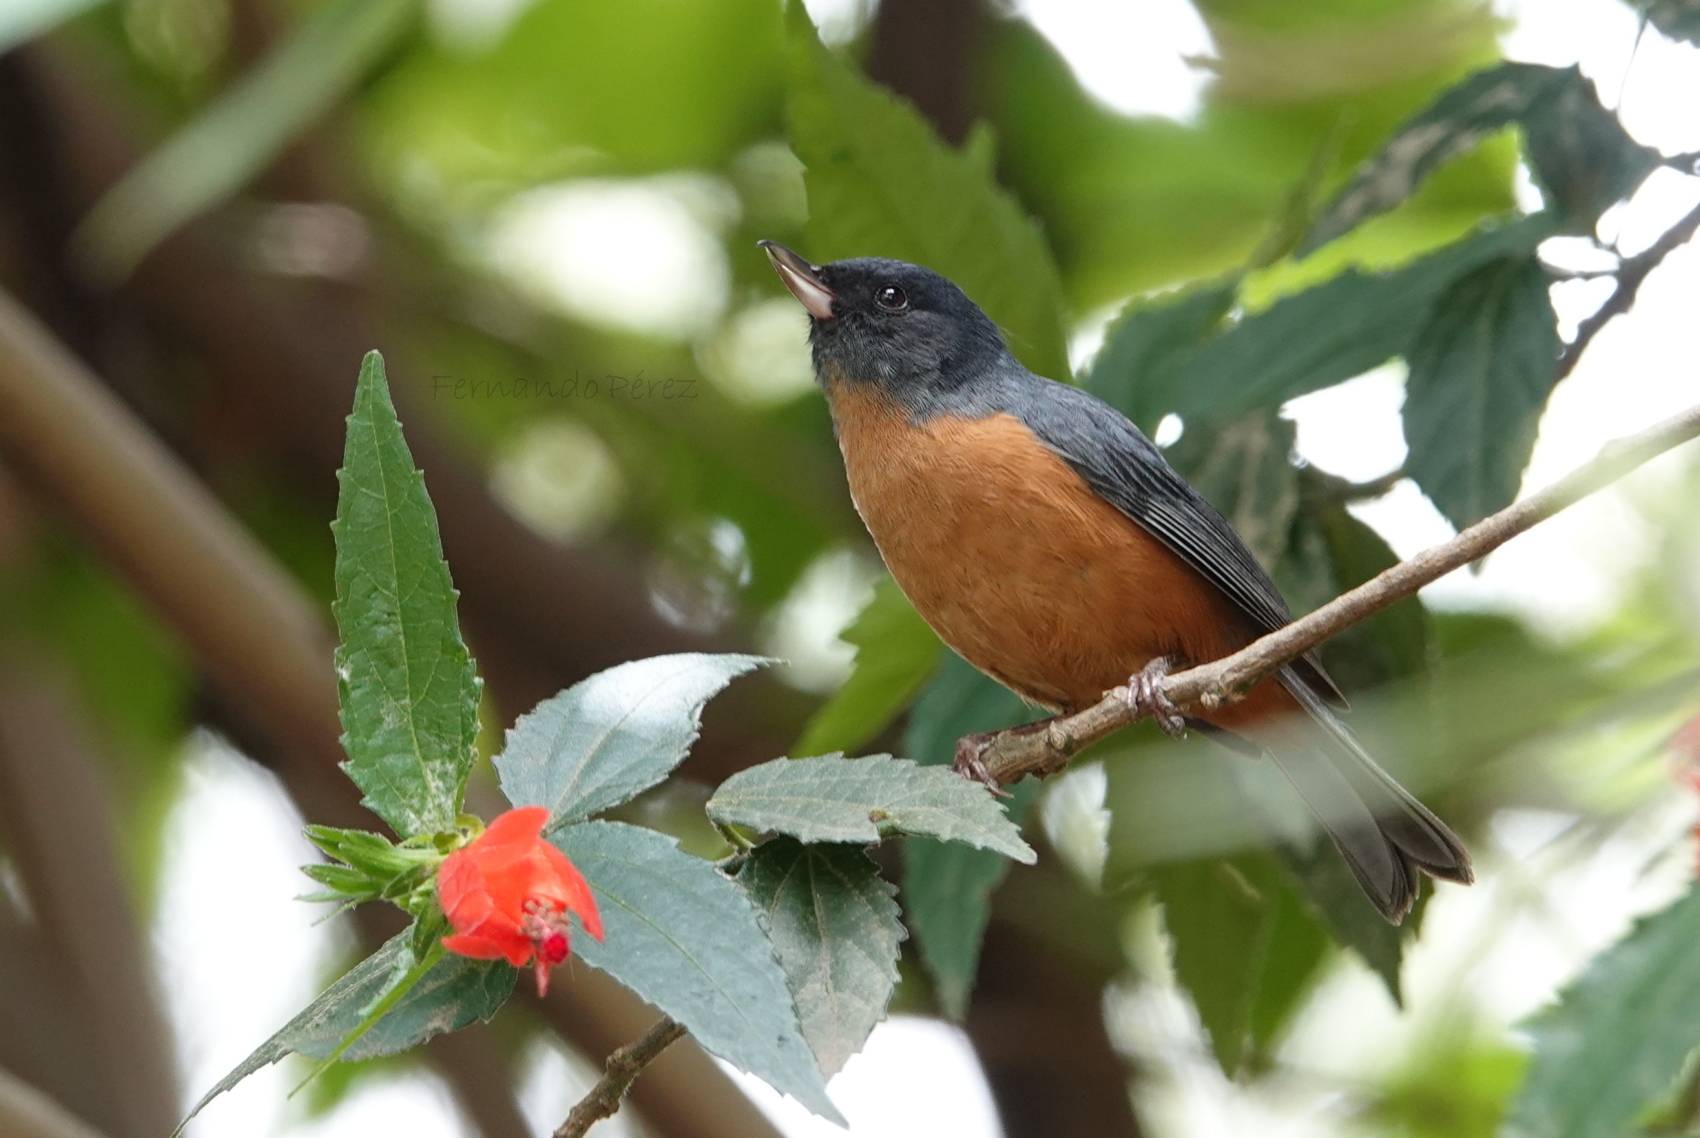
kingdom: Animalia
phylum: Chordata
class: Aves
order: Passeriformes
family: Thraupidae
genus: Diglossa
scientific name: Diglossa baritula
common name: Cinnamon-bellied flowerpiercer
